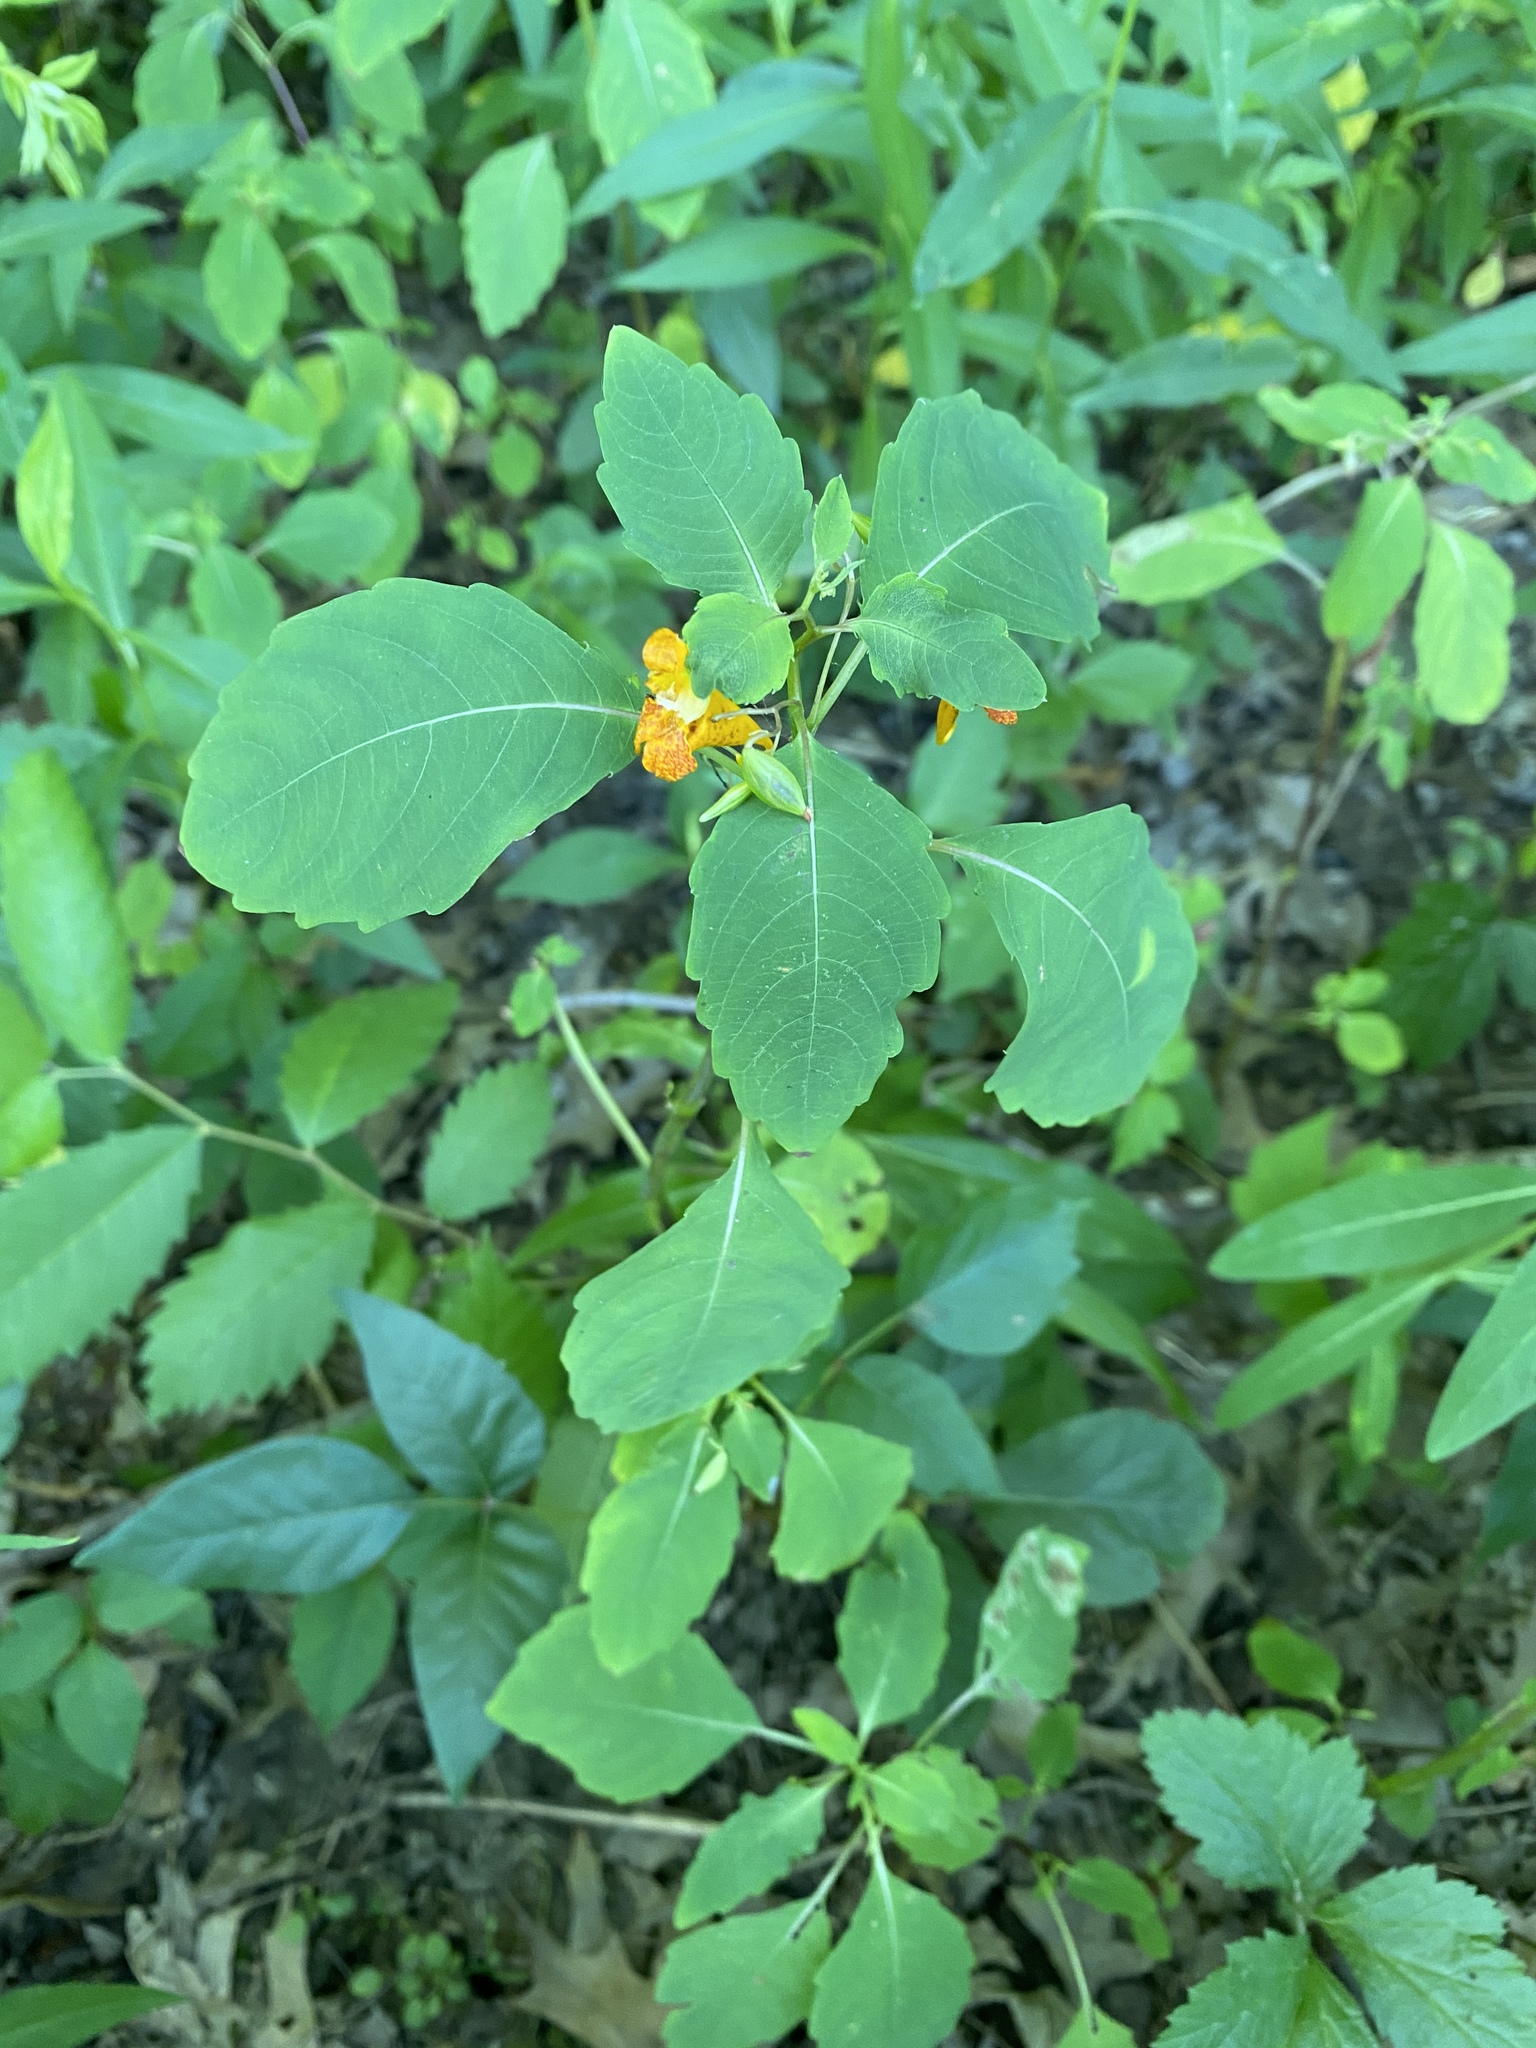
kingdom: Plantae
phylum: Tracheophyta
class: Magnoliopsida
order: Ericales
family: Balsaminaceae
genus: Impatiens
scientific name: Impatiens capensis
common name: Orange balsam
